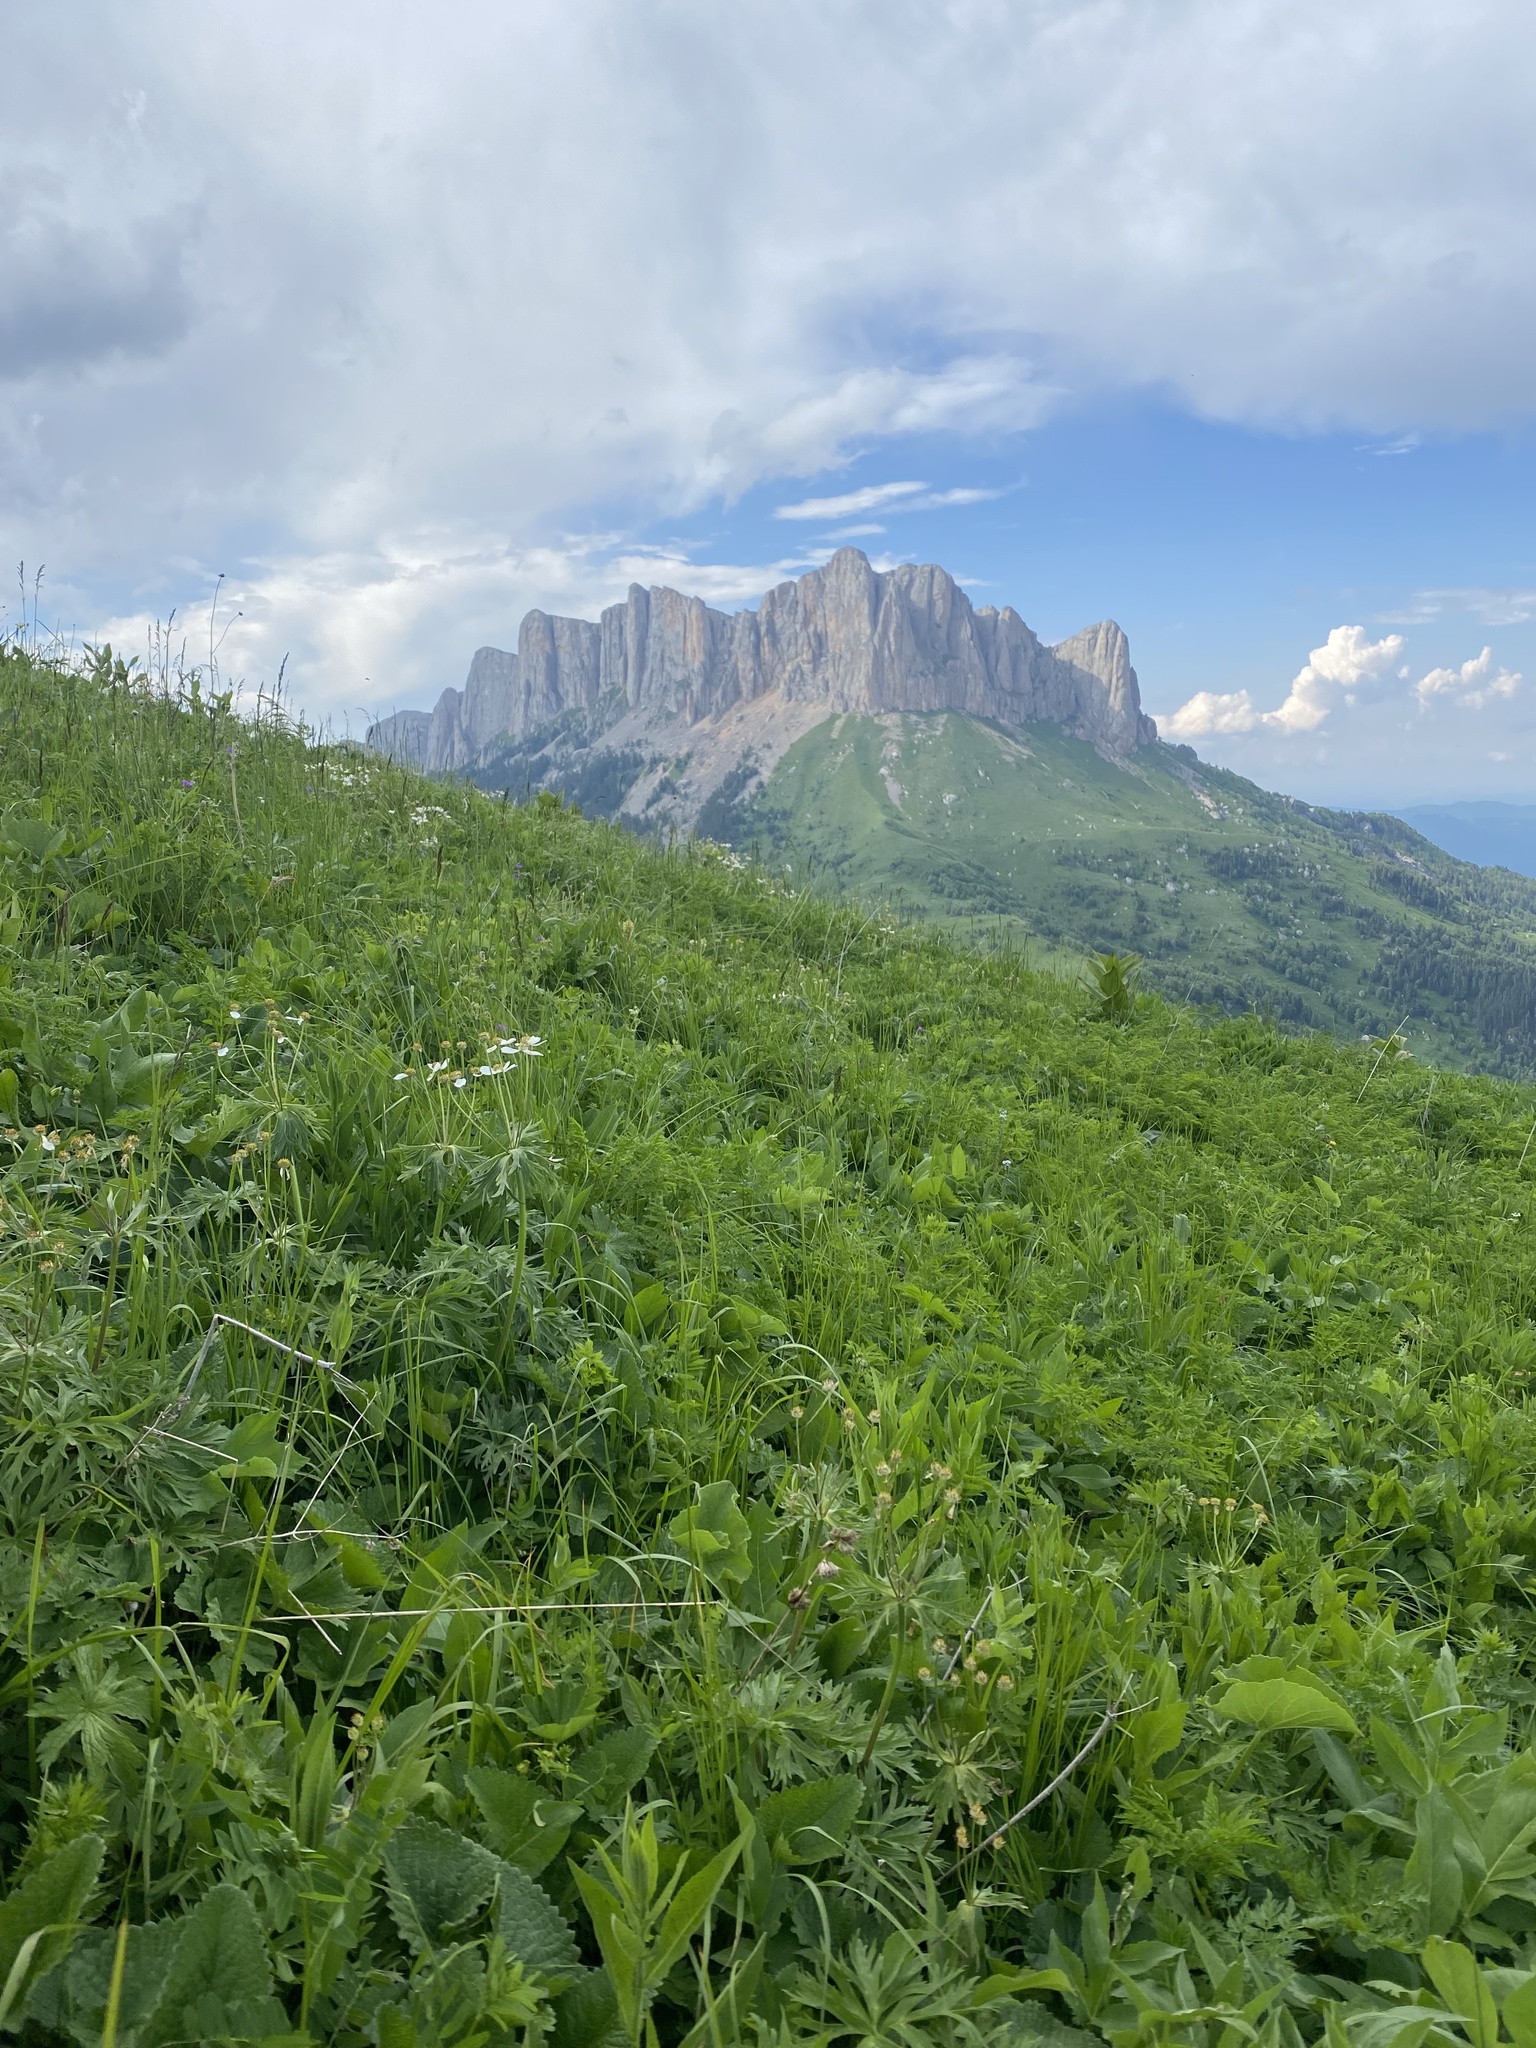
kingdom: Plantae
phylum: Tracheophyta
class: Magnoliopsida
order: Ranunculales
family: Ranunculaceae
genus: Anemonastrum
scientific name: Anemonastrum narcissiflorum
